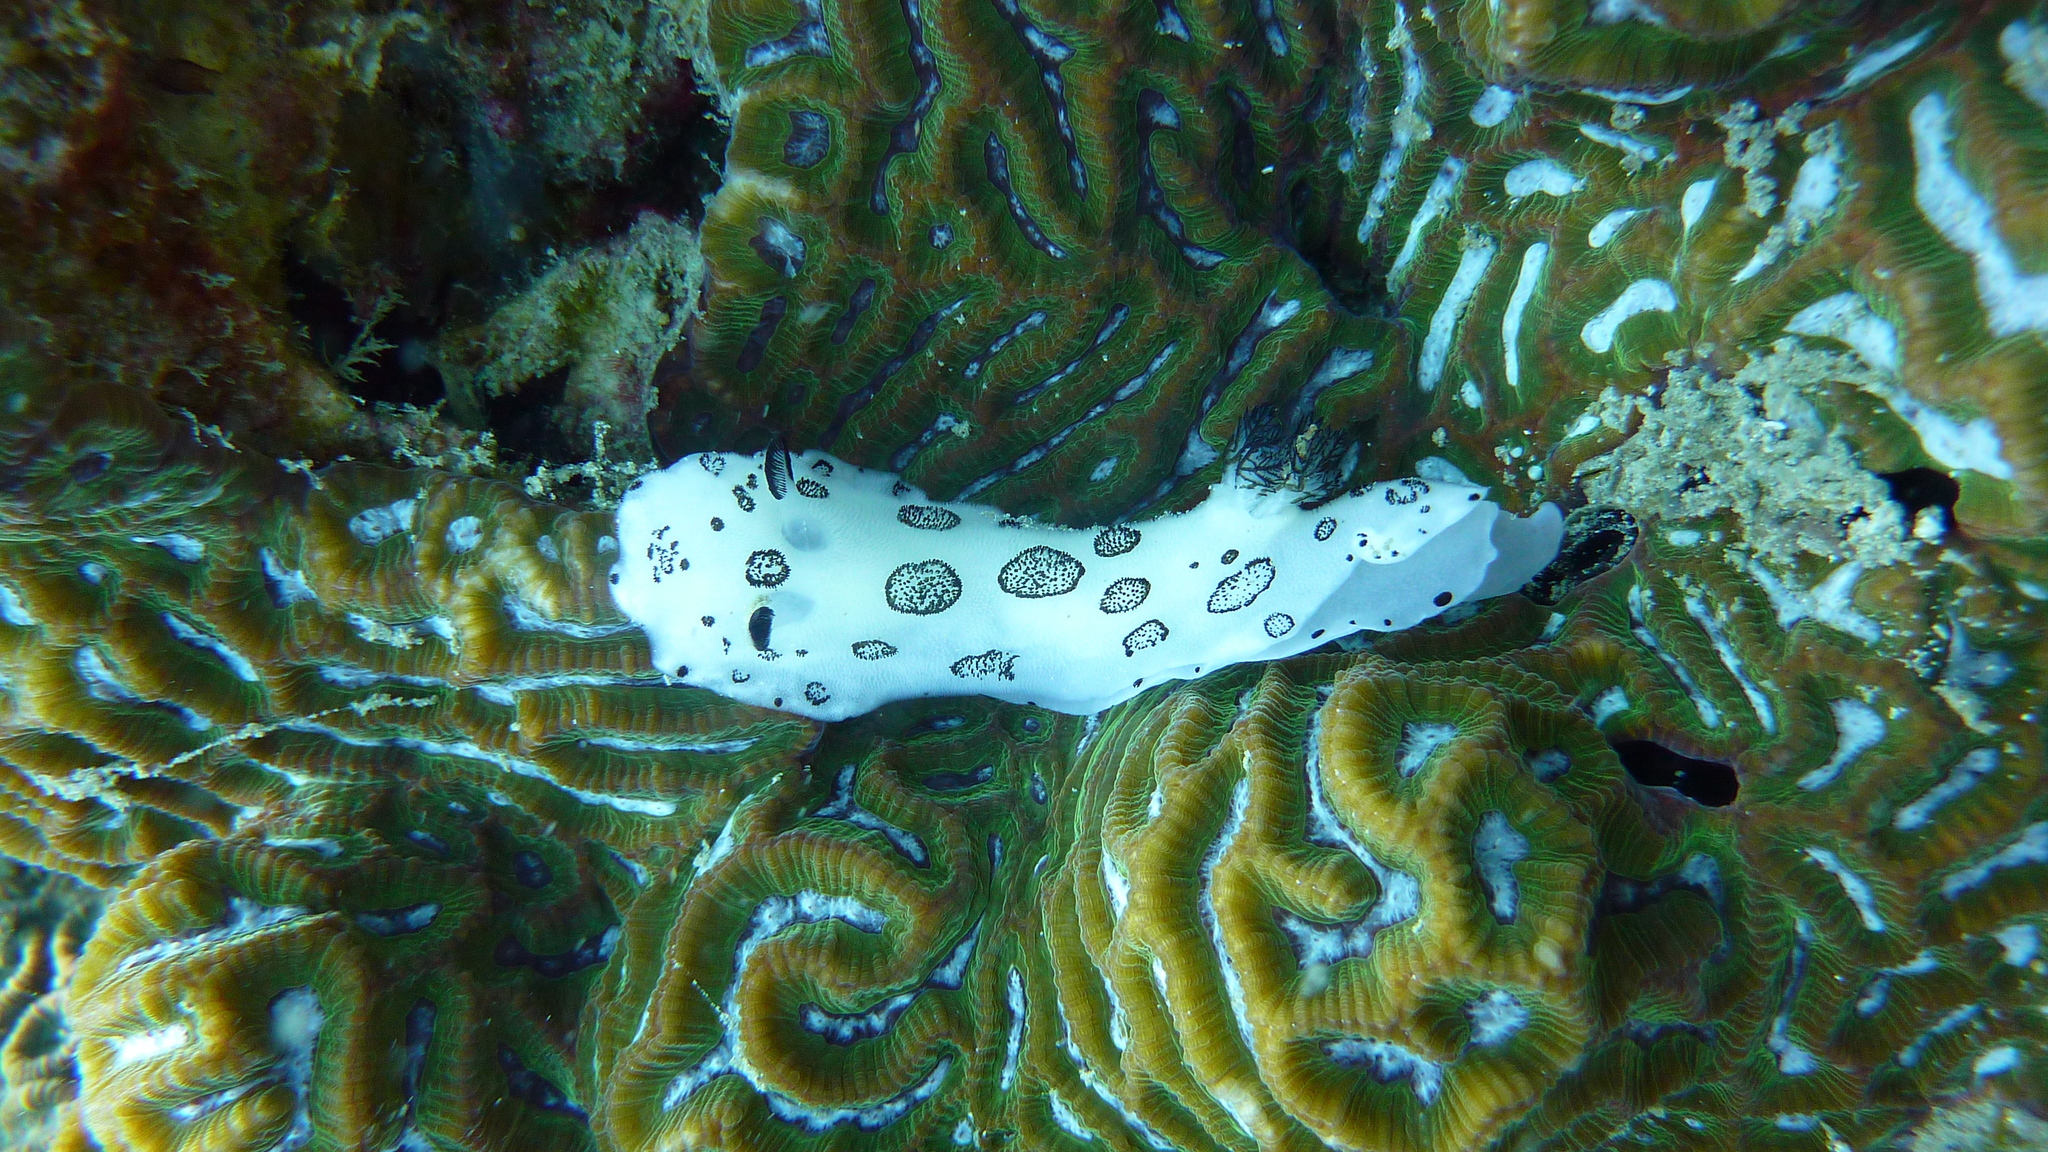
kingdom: Animalia
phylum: Mollusca
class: Gastropoda
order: Nudibranchia
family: Discodorididae
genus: Jorunna
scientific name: Jorunna funebris
